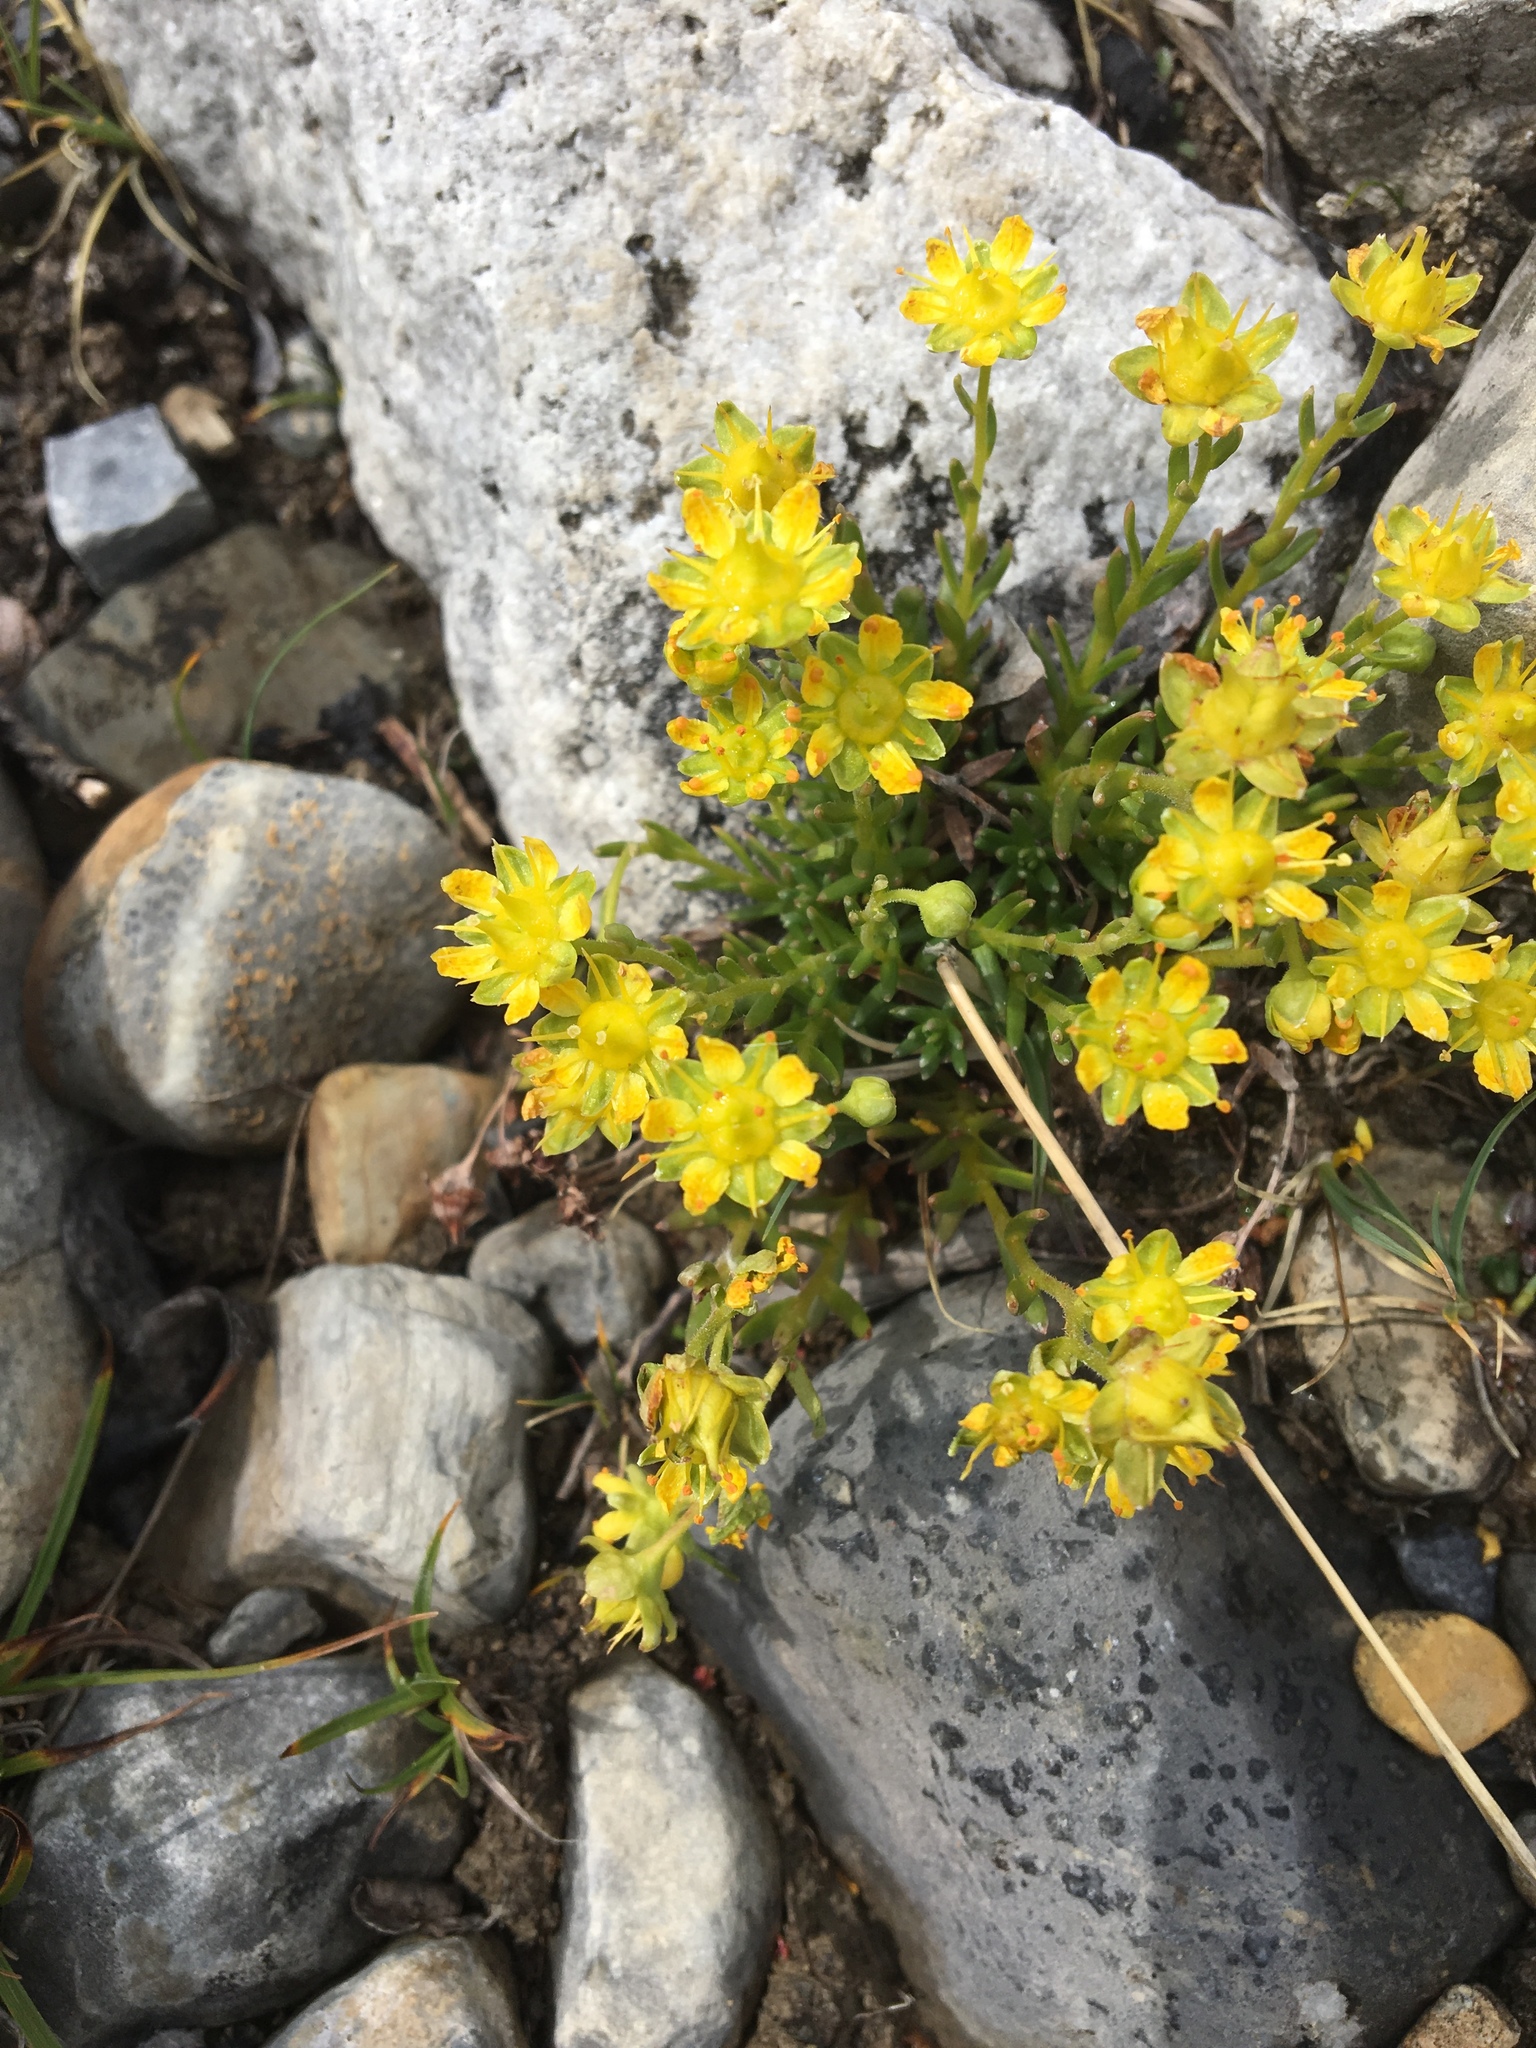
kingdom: Plantae
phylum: Tracheophyta
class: Magnoliopsida
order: Saxifragales
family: Saxifragaceae
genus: Saxifraga
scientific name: Saxifraga aizoides
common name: Yellow mountain saxifrage
